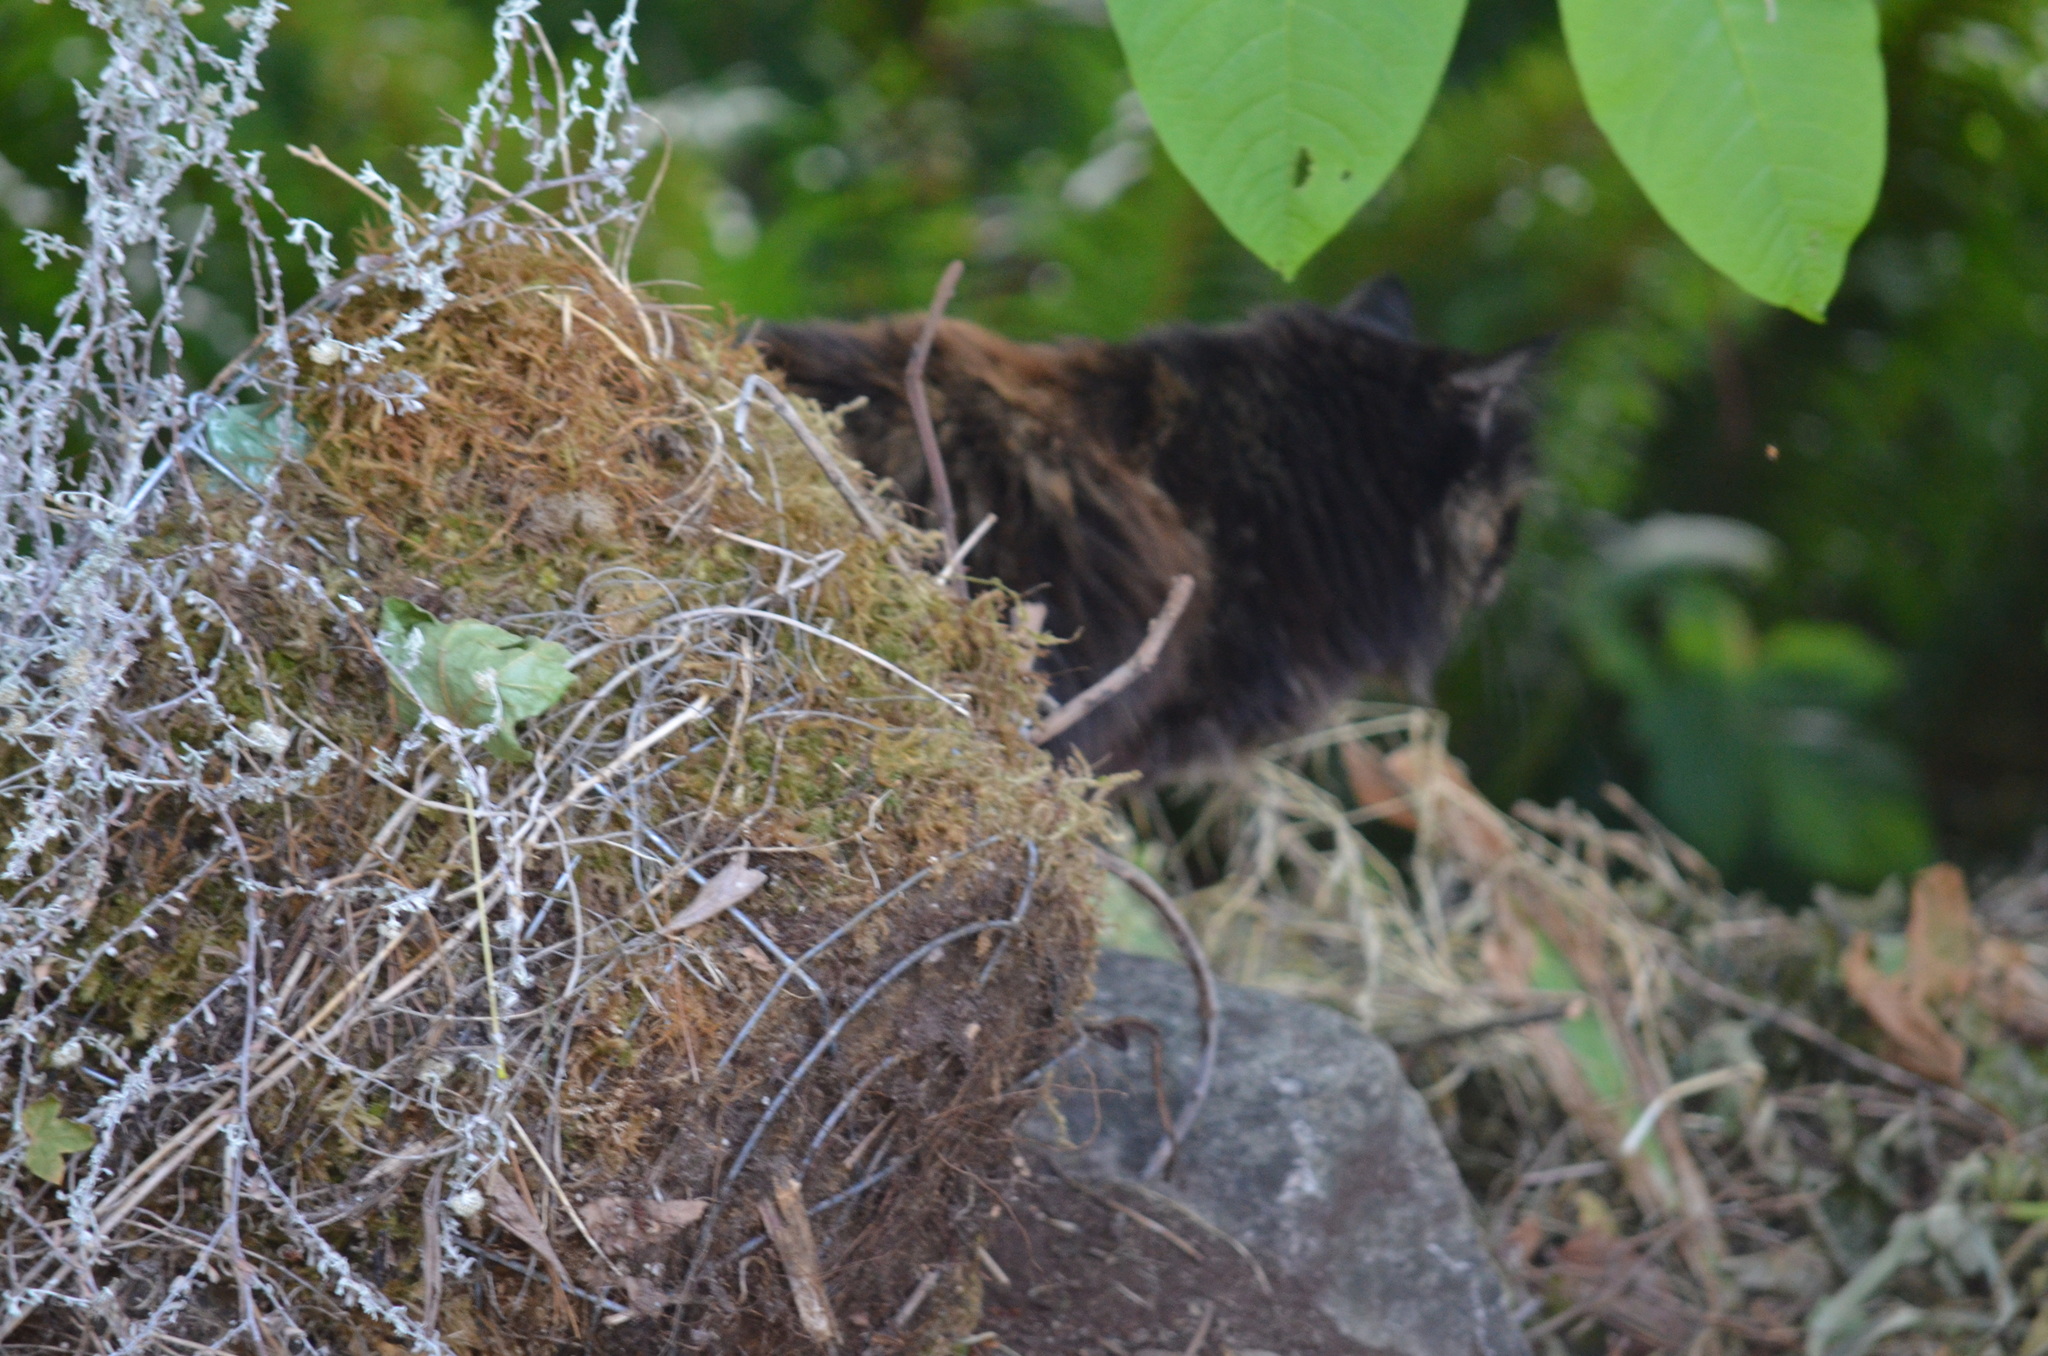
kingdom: Animalia
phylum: Chordata
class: Mammalia
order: Carnivora
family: Felidae
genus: Felis
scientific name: Felis catus
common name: Domestic cat
